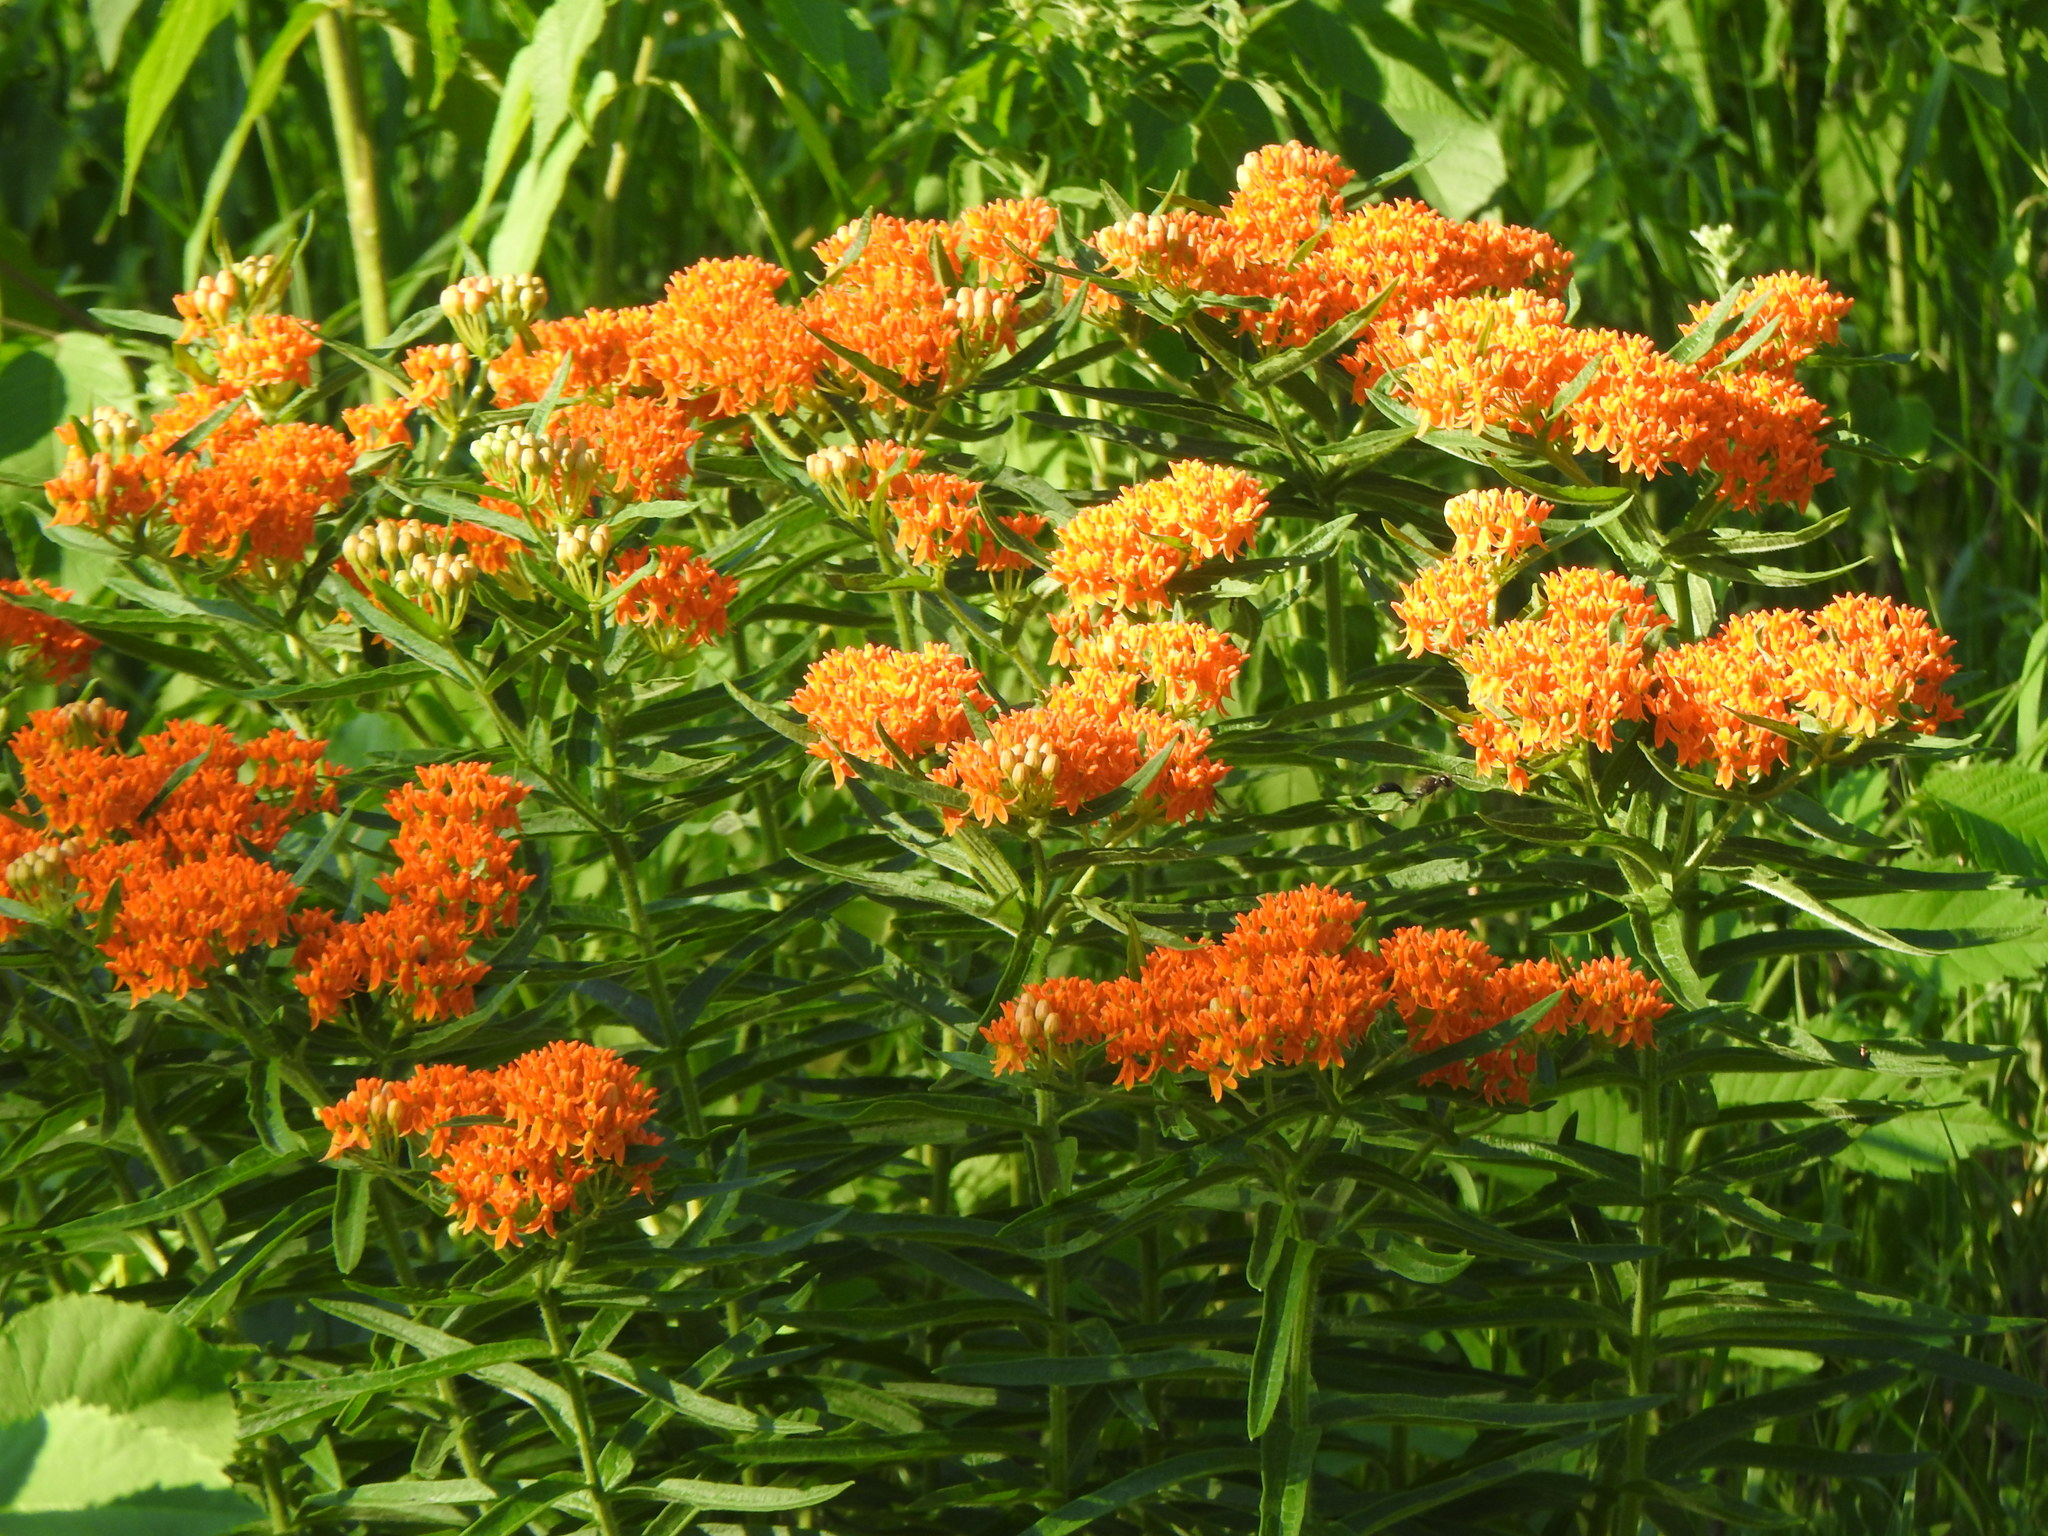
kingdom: Plantae
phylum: Tracheophyta
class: Magnoliopsida
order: Gentianales
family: Apocynaceae
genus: Asclepias
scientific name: Asclepias tuberosa
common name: Butterfly milkweed
